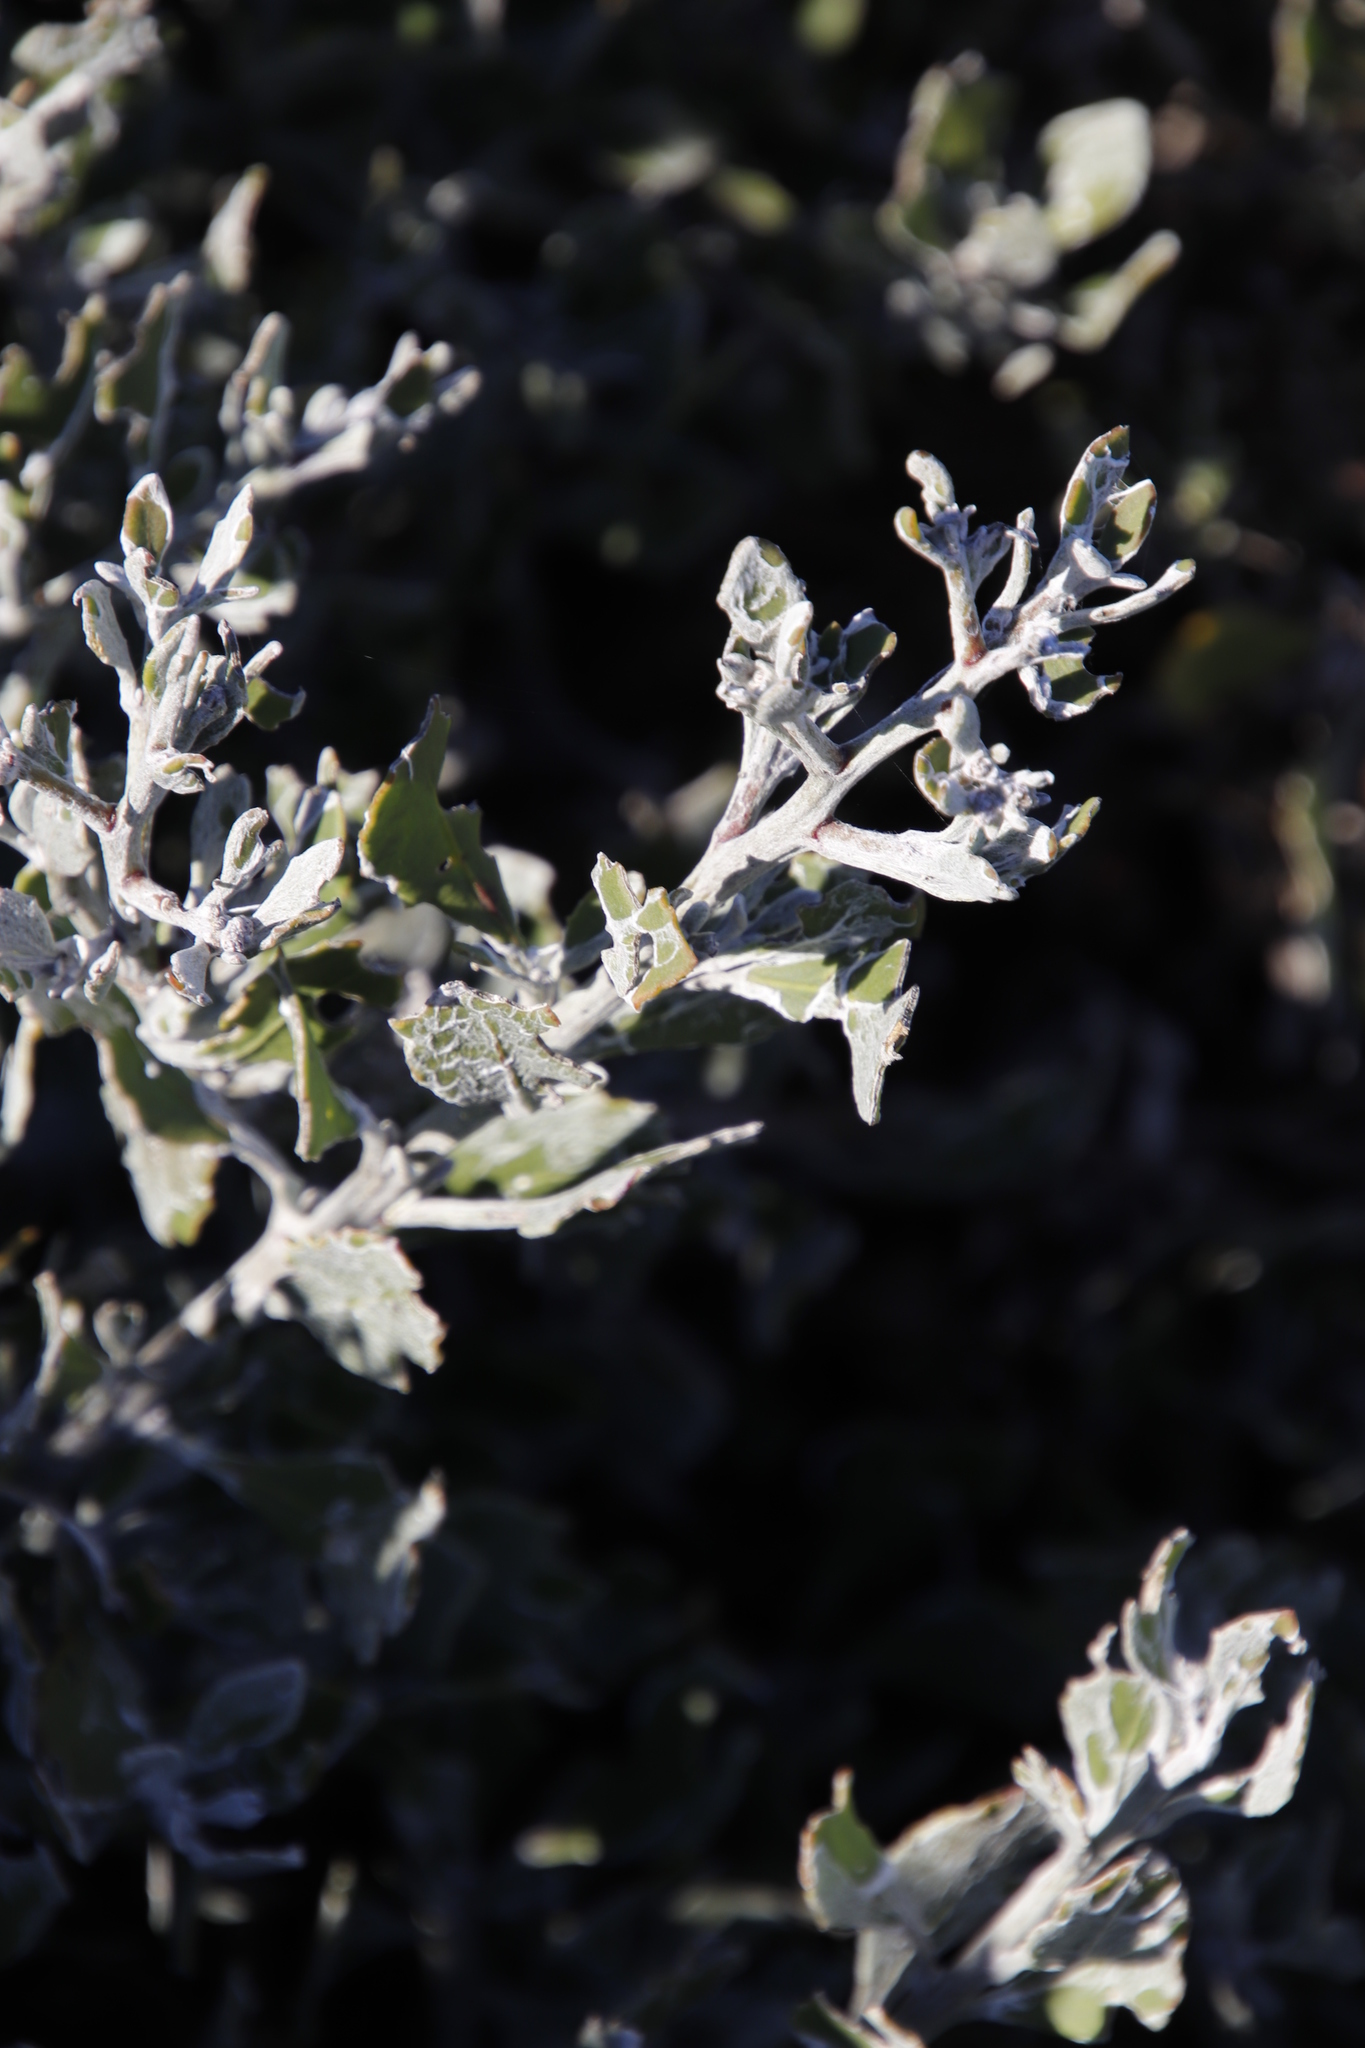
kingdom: Plantae
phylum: Tracheophyta
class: Magnoliopsida
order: Asterales
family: Asteraceae
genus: Osteospermum
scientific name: Osteospermum incanum
